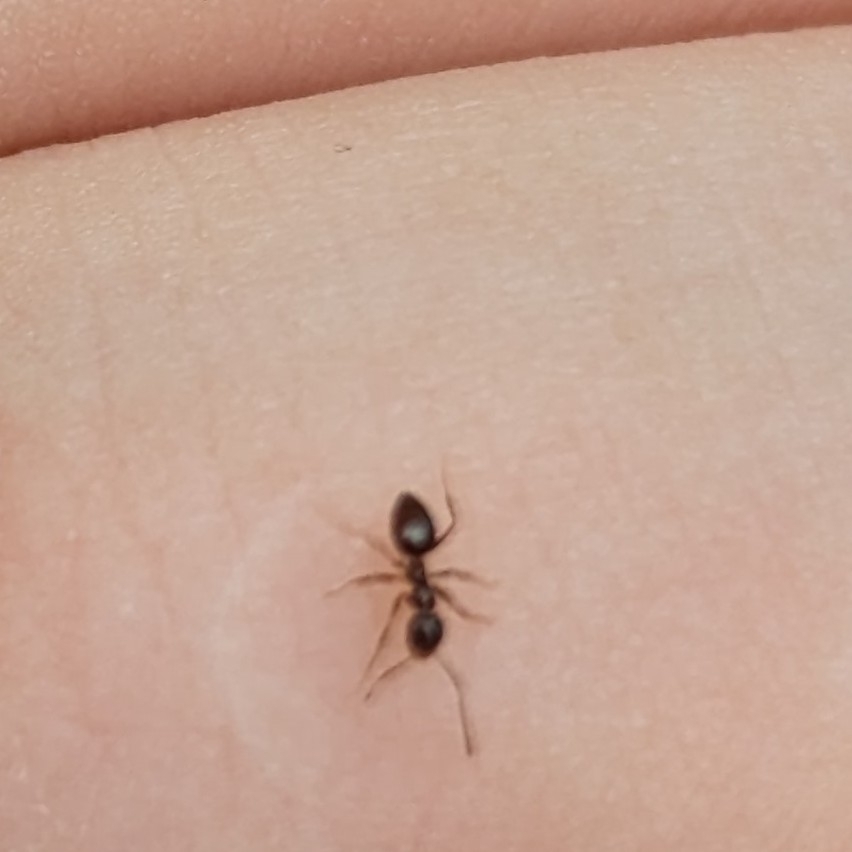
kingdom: Animalia
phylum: Arthropoda
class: Insecta
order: Hymenoptera
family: Formicidae
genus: Prenolepis
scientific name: Prenolepis imparis
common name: Small honey ant
